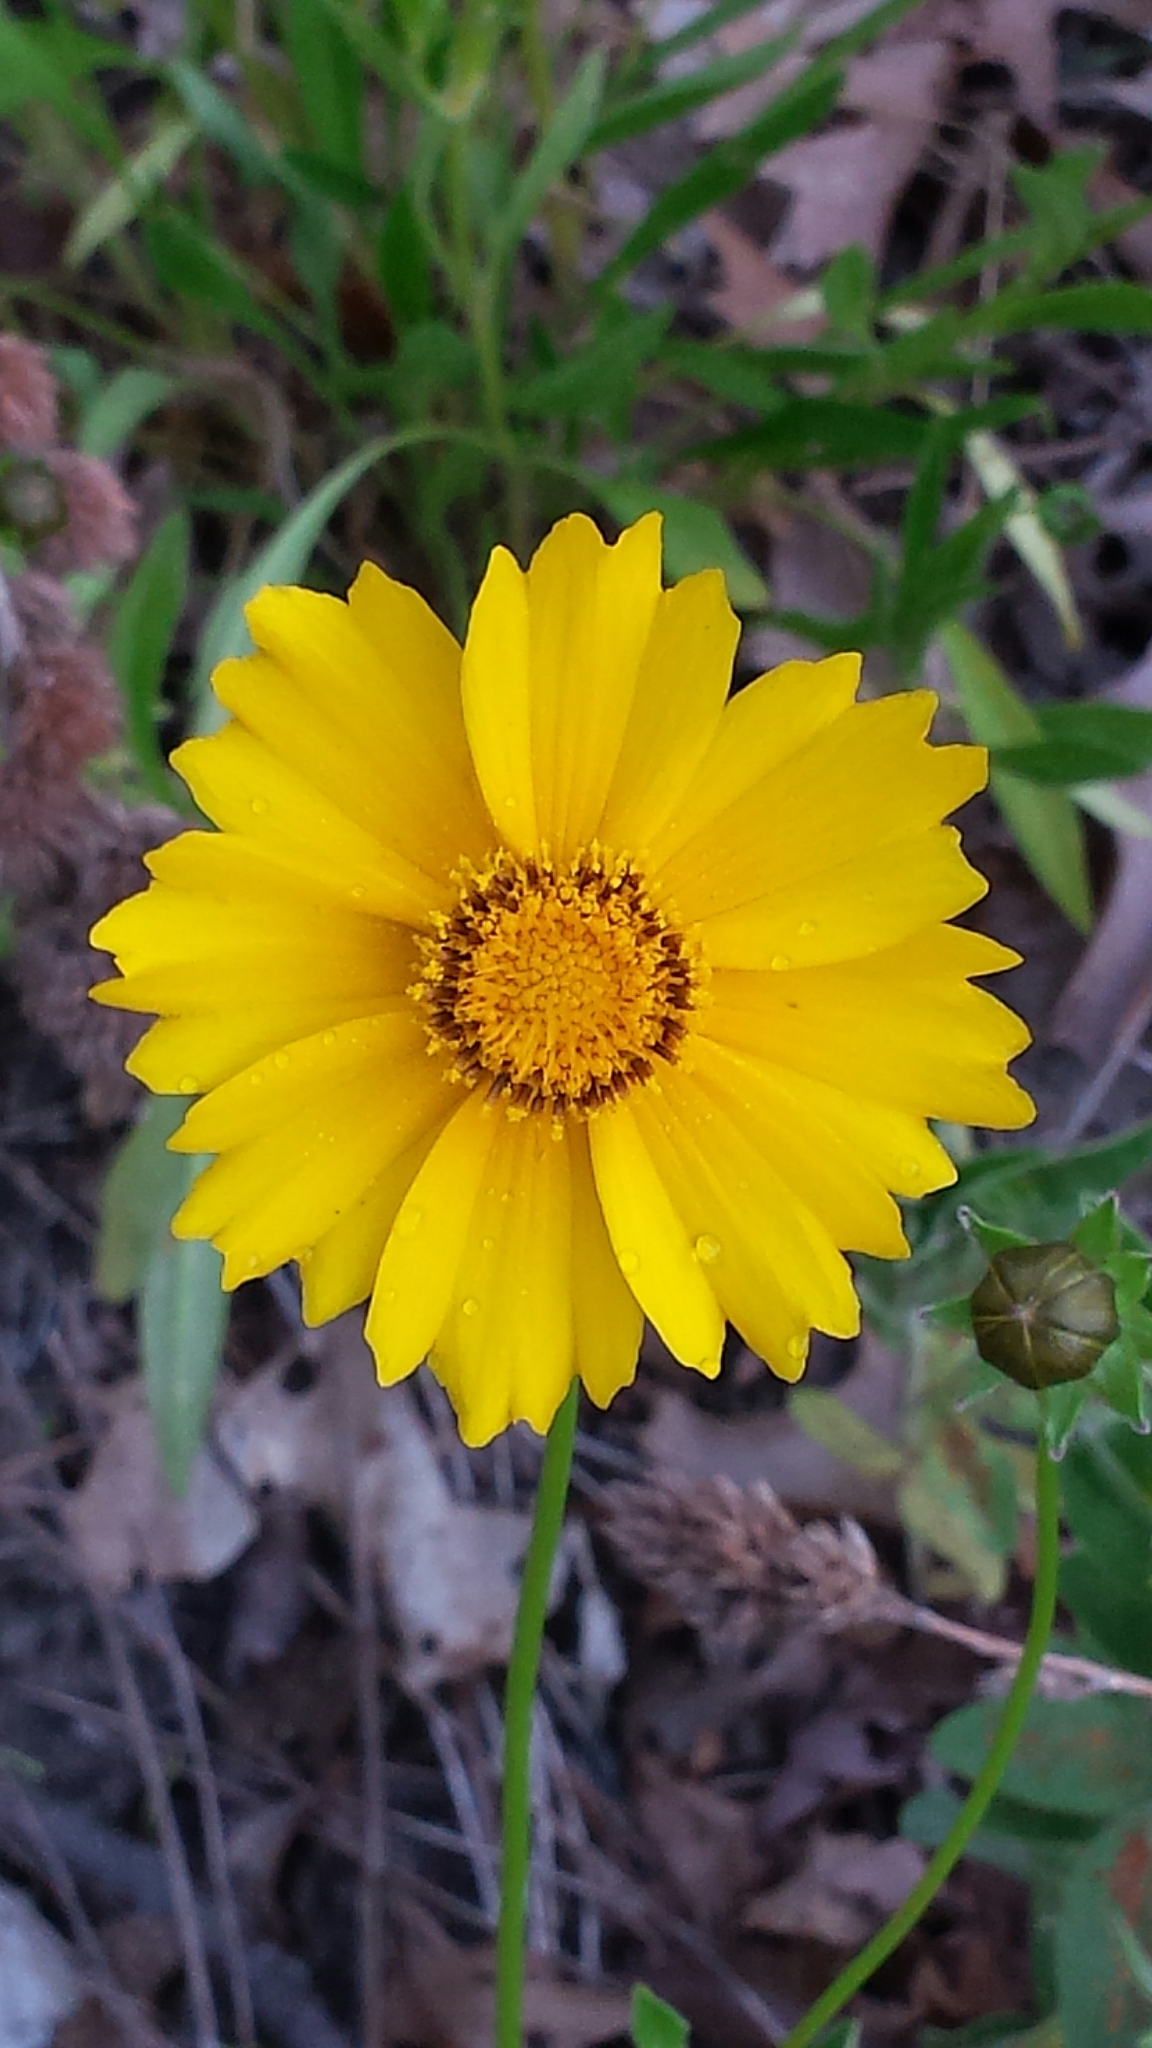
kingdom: Plantae
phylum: Tracheophyta
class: Magnoliopsida
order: Asterales
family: Asteraceae
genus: Coreopsis
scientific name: Coreopsis lanceolata
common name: Garden coreopsis
